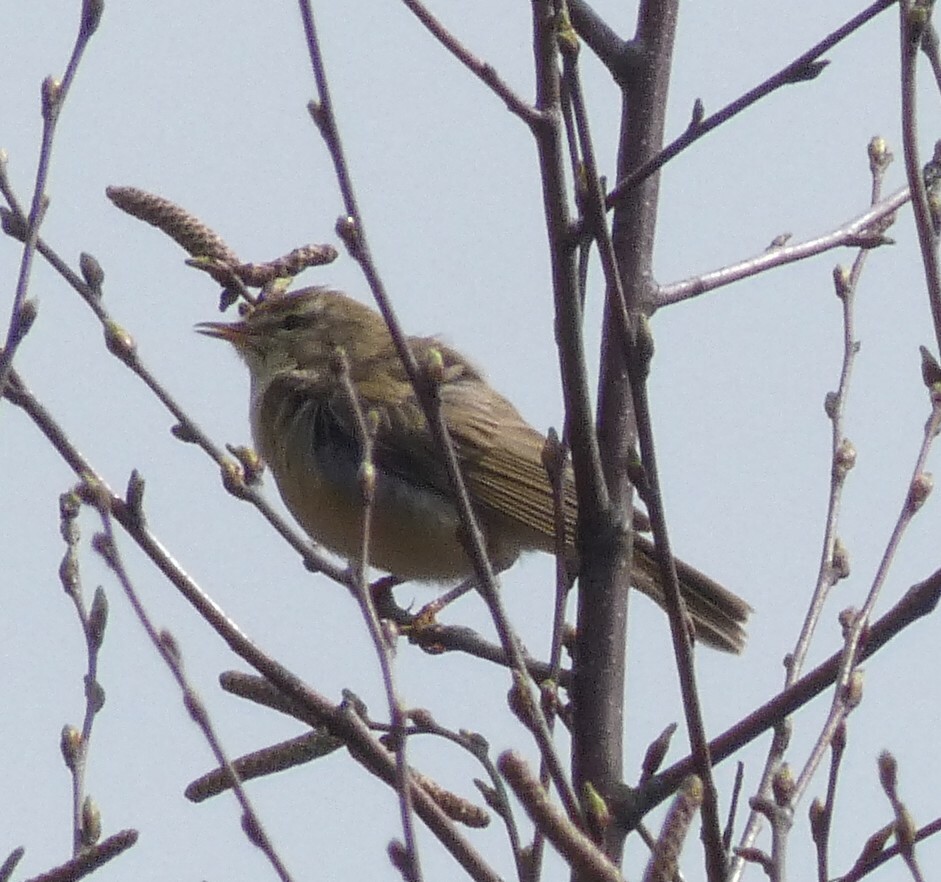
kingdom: Animalia
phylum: Chordata
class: Aves
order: Passeriformes
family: Phylloscopidae
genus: Phylloscopus
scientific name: Phylloscopus trochilus
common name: Willow warbler
